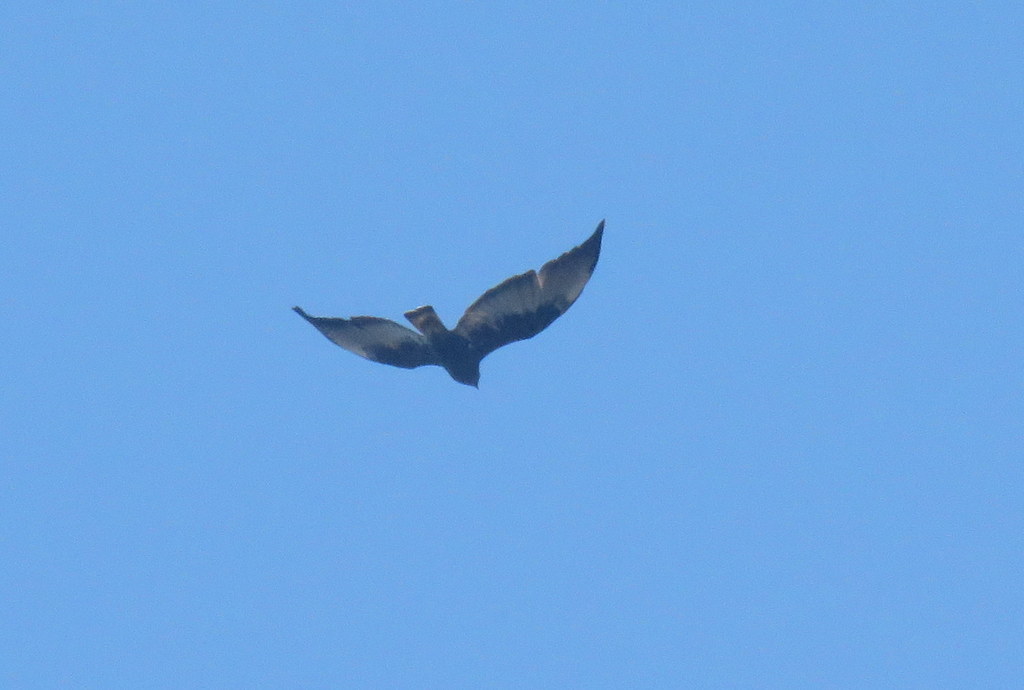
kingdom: Animalia
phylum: Chordata
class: Aves
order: Accipitriformes
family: Accipitridae
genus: Buteo
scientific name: Buteo albicaudatus
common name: White-tailed hawk
